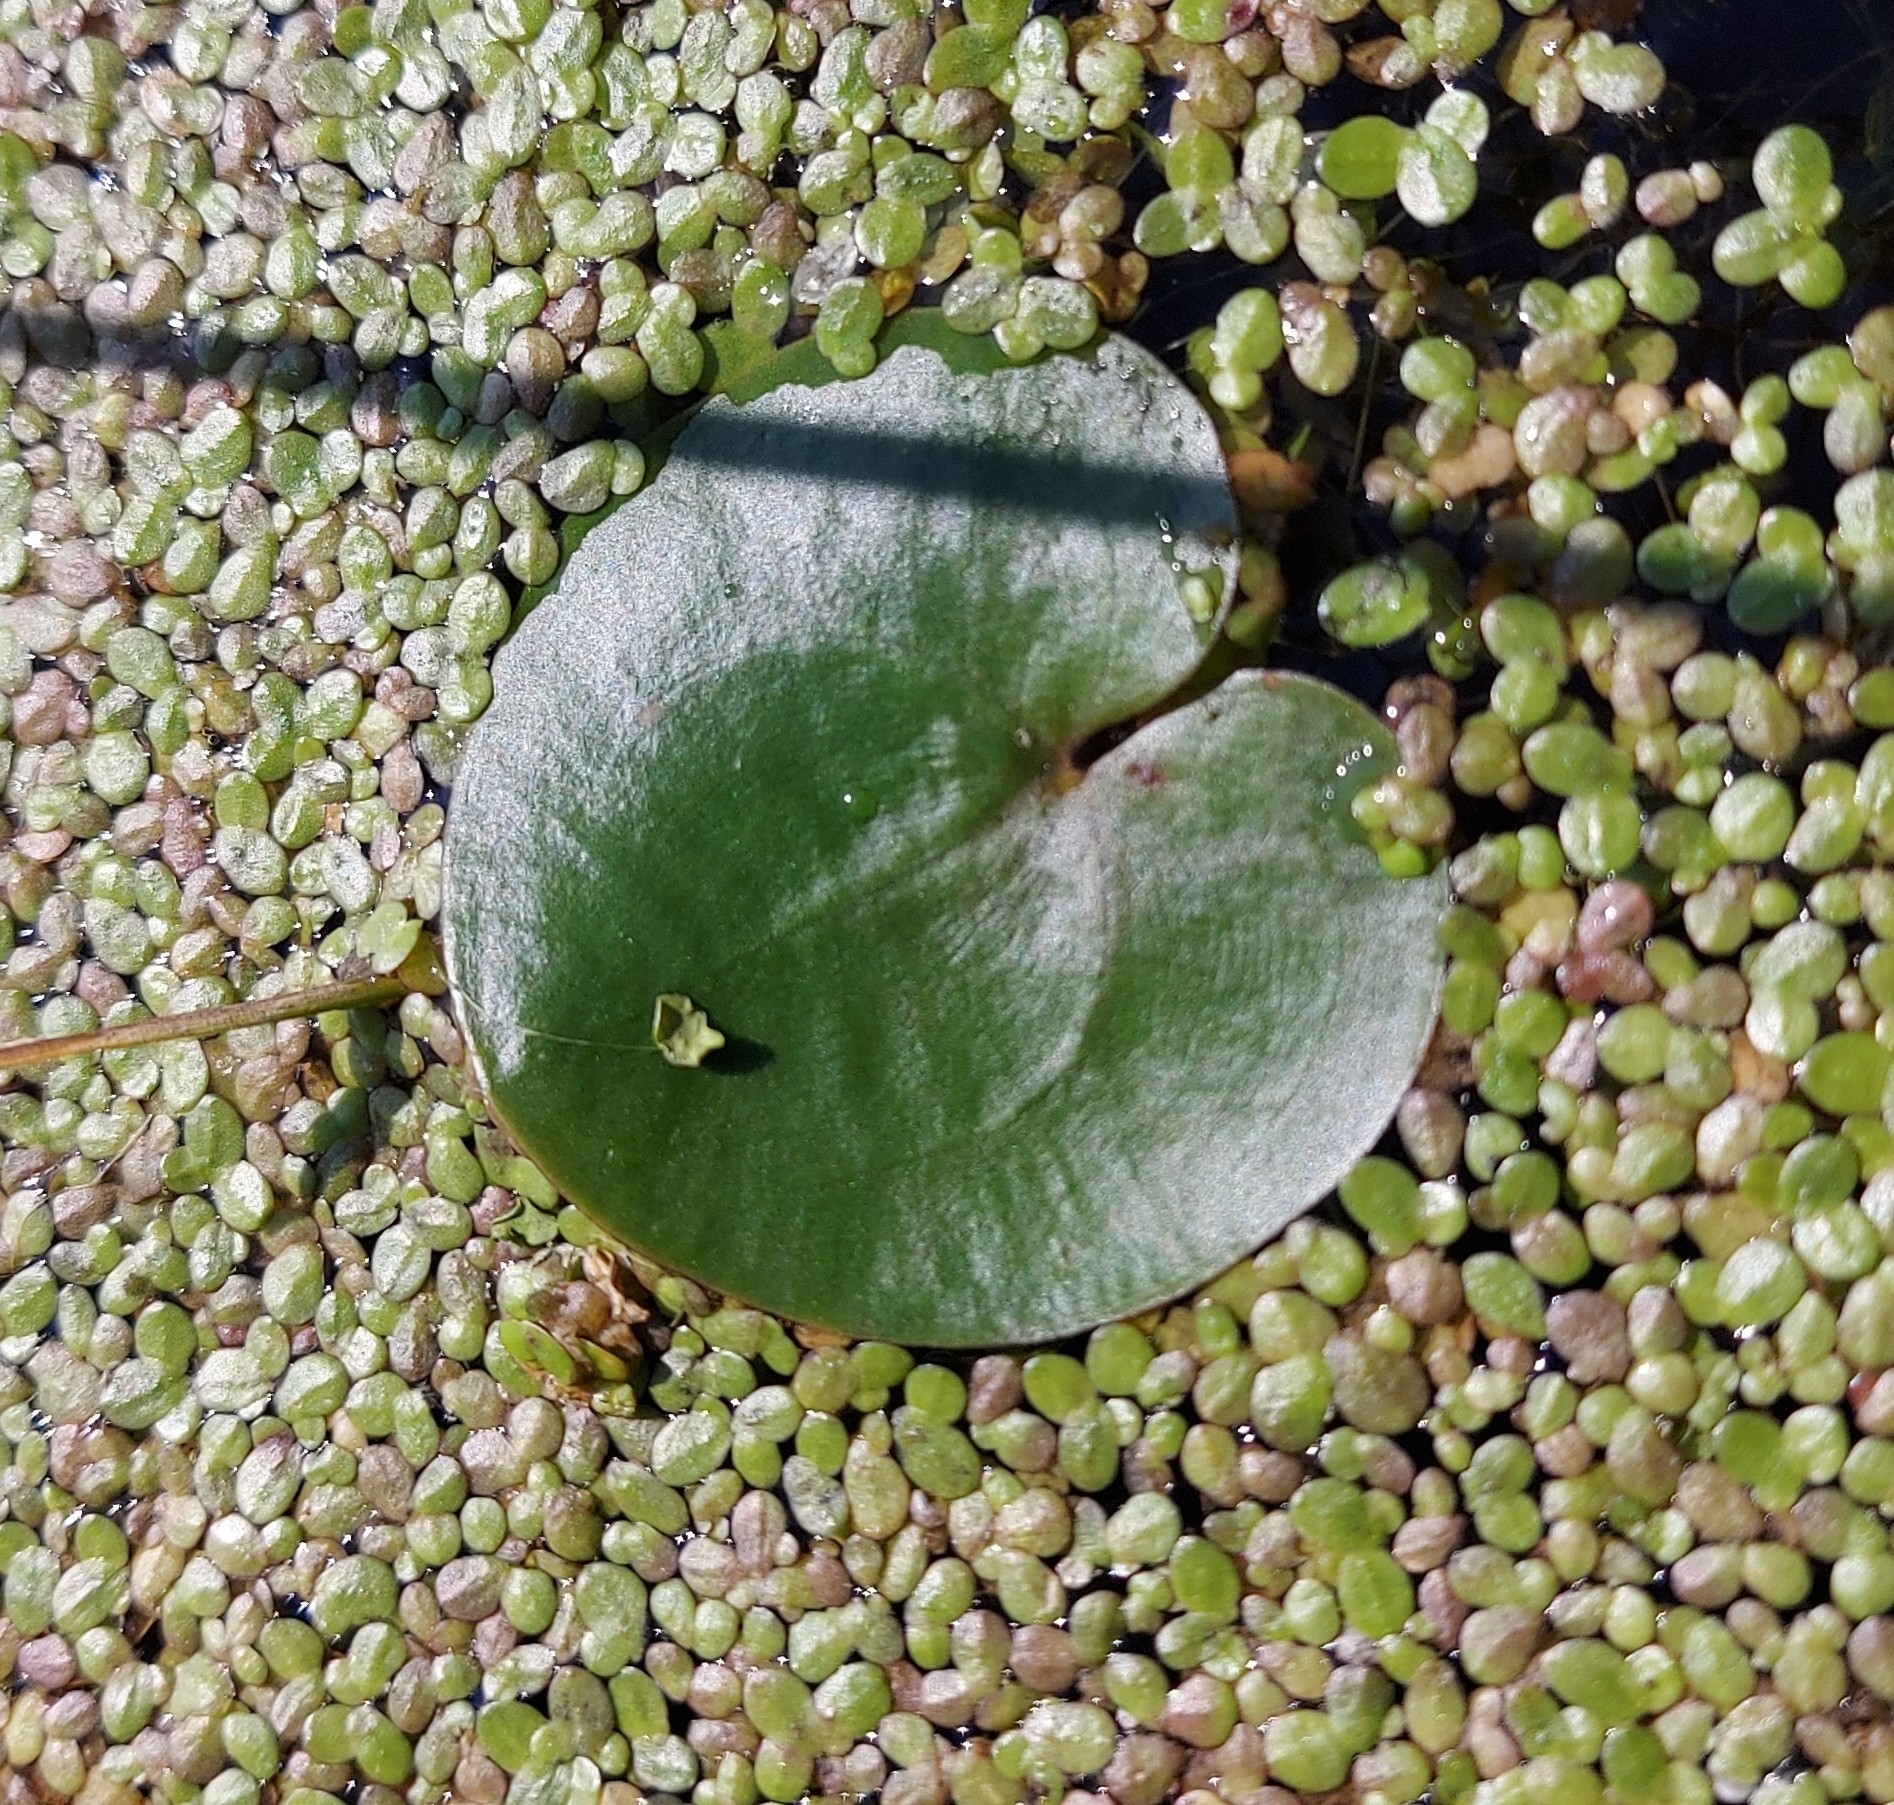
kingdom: Plantae
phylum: Tracheophyta
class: Liliopsida
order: Alismatales
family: Hydrocharitaceae
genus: Hydrocharis
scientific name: Hydrocharis morsus-ranae
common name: Frogbit
